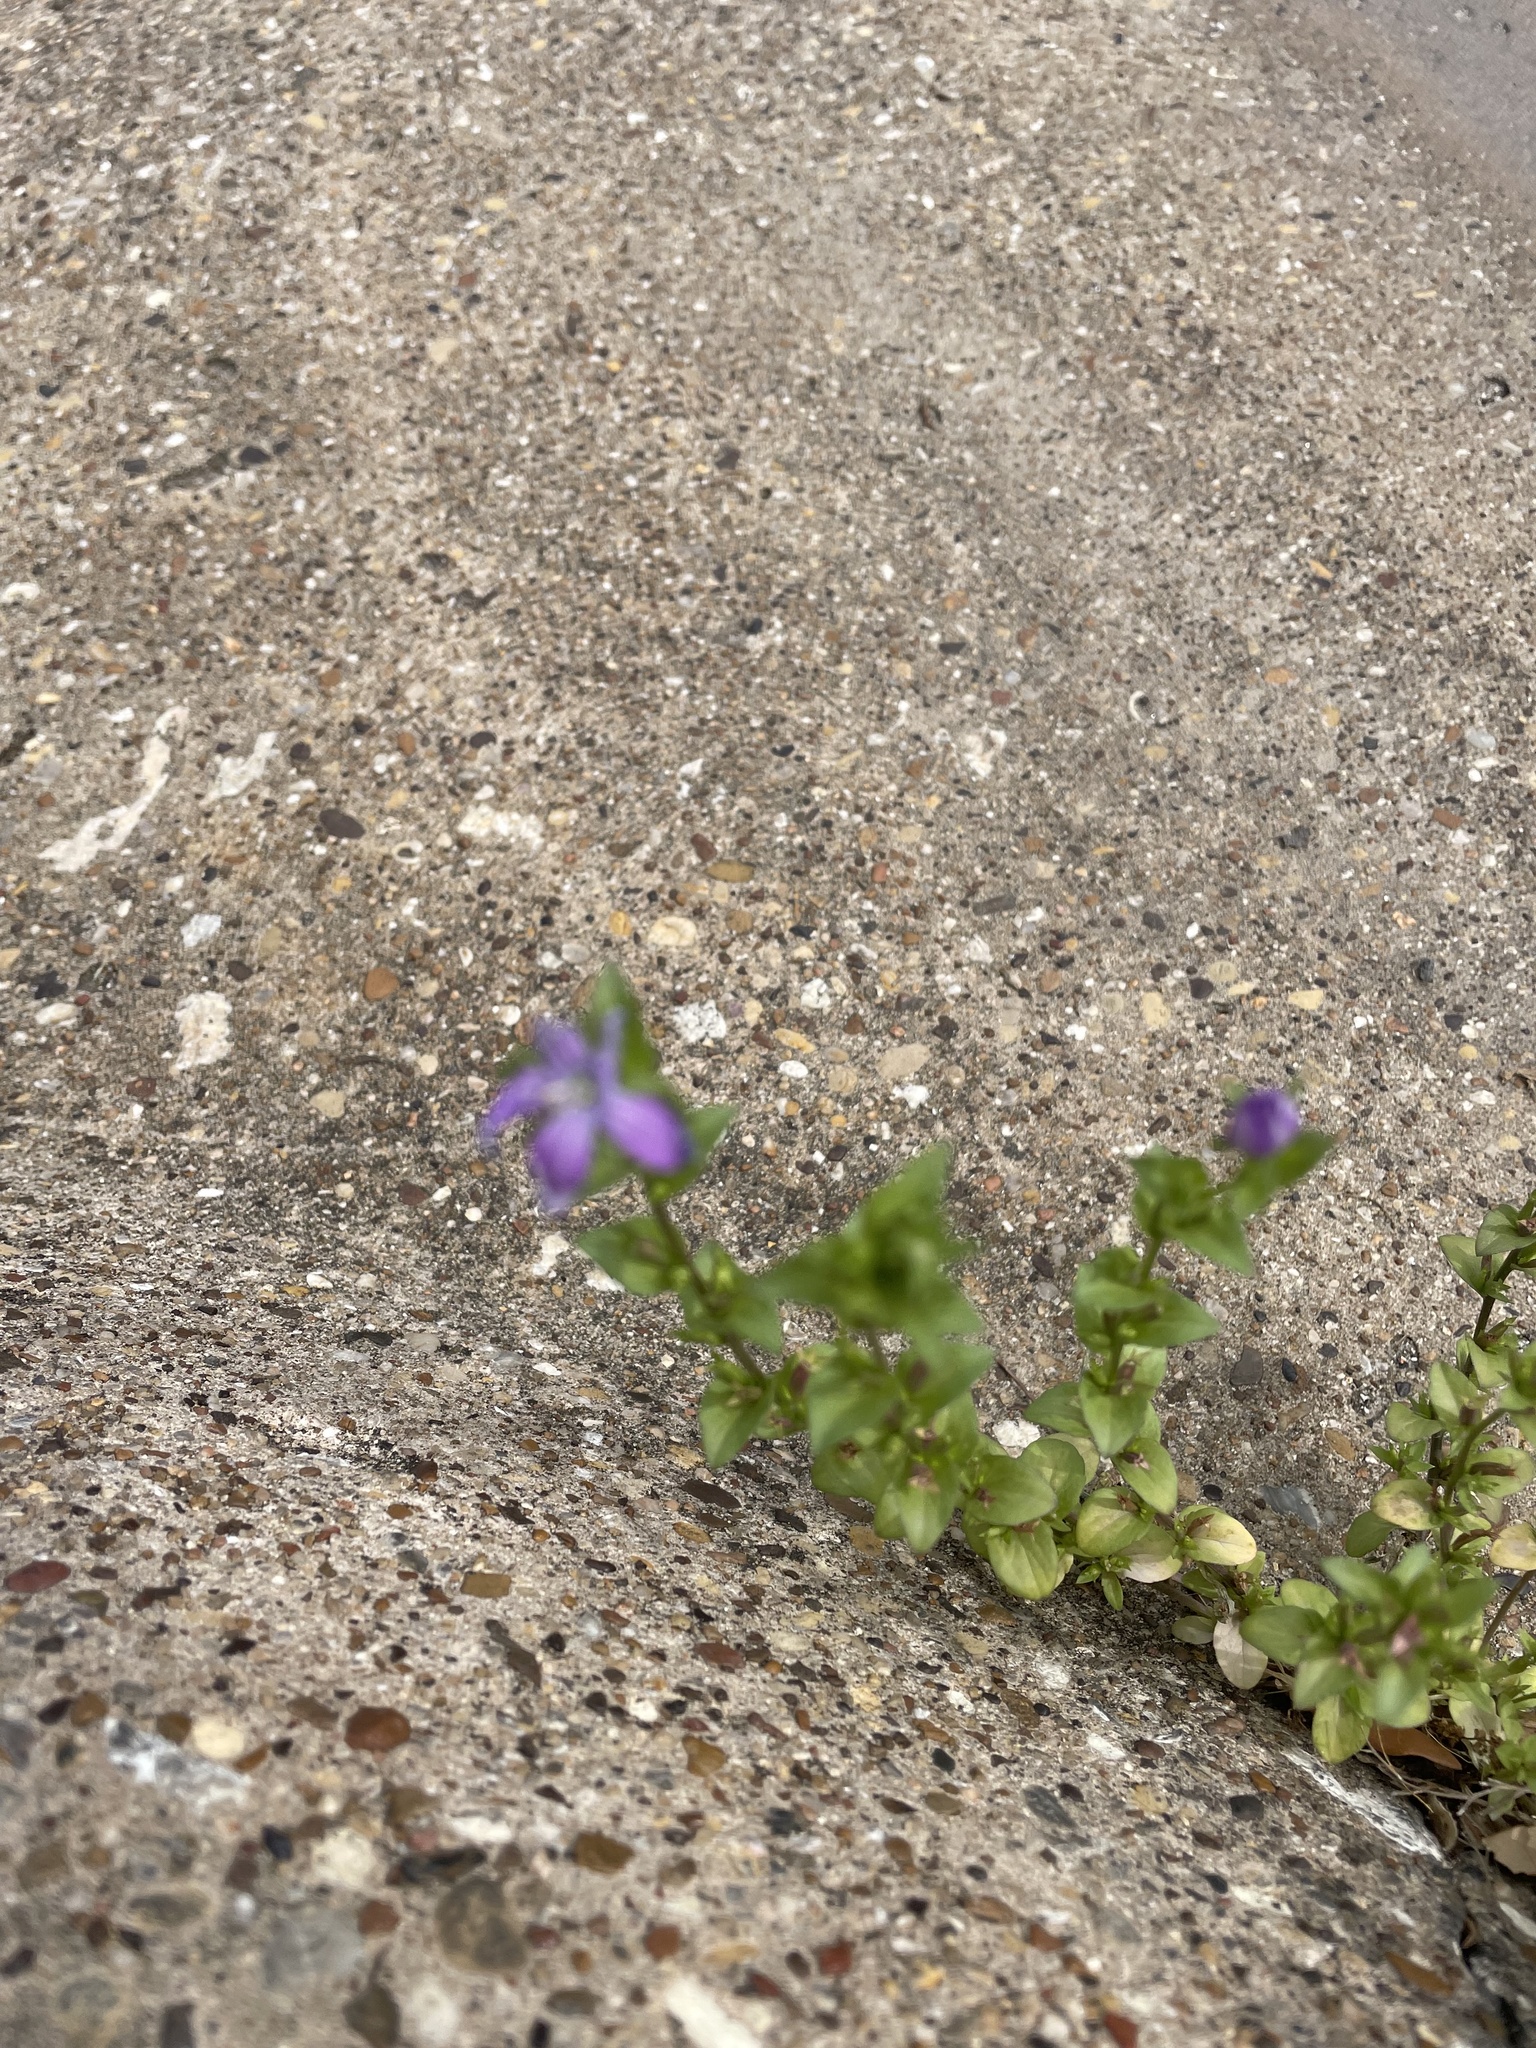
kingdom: Plantae
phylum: Tracheophyta
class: Magnoliopsida
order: Asterales
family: Campanulaceae
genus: Triodanis
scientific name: Triodanis biflora
